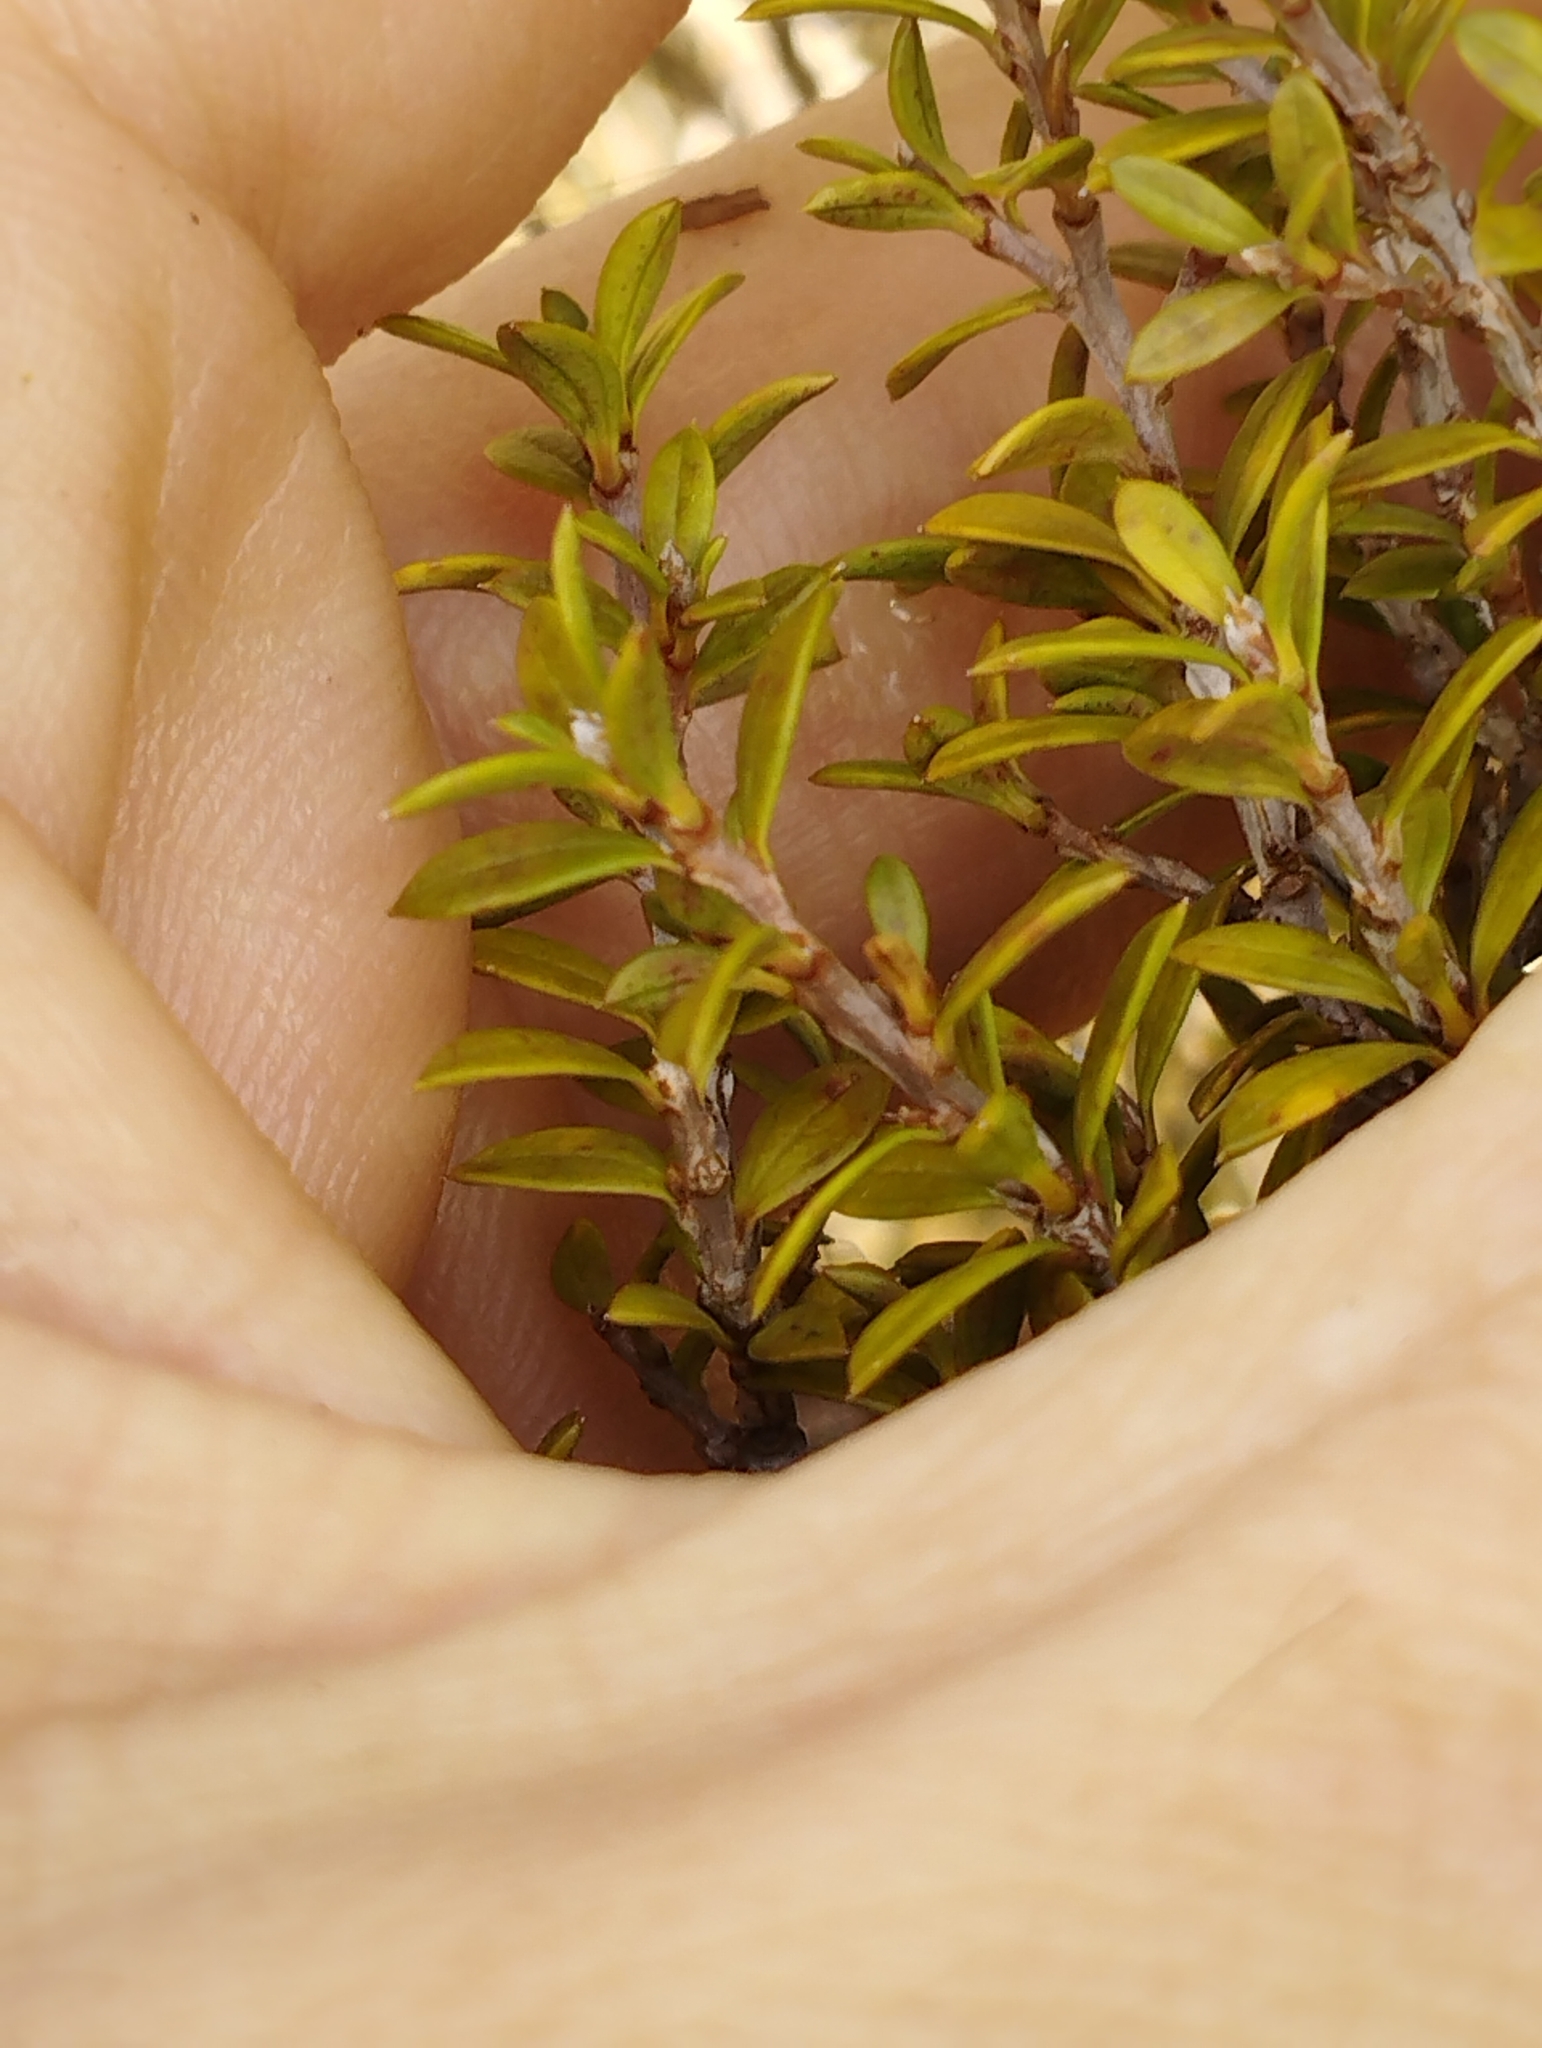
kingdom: Plantae
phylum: Tracheophyta
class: Magnoliopsida
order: Myrtales
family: Myrtaceae
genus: Leptospermum
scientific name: Leptospermum scoparium
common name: Broom tea-tree
